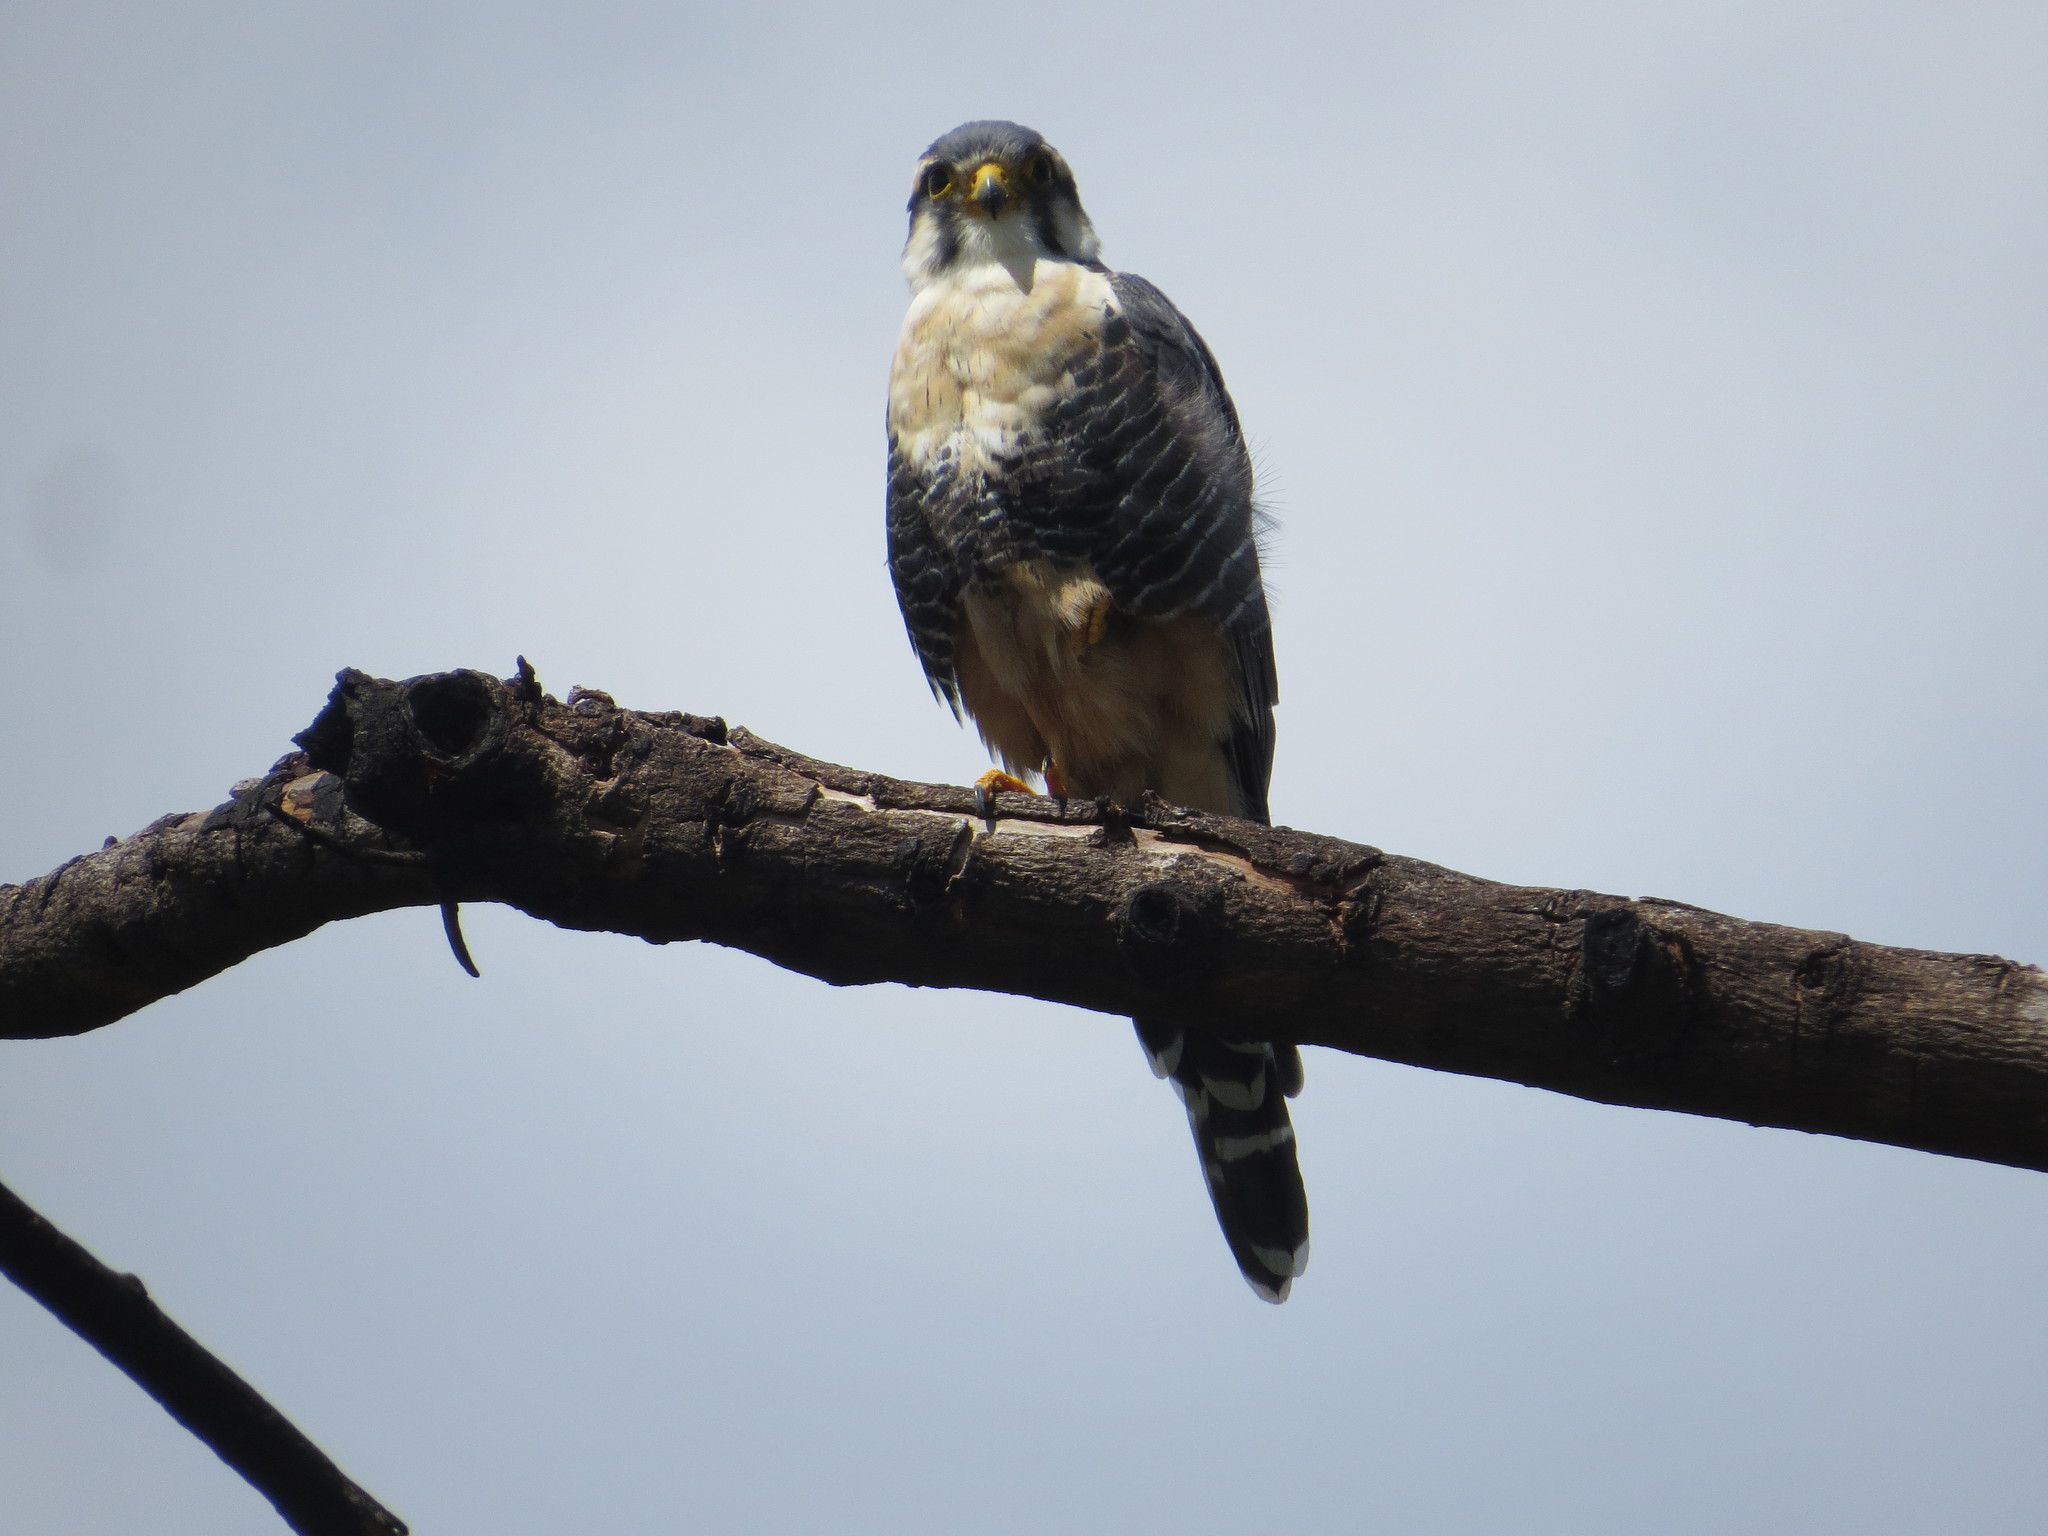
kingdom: Animalia
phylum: Chordata
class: Aves
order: Falconiformes
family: Falconidae
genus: Falco
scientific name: Falco femoralis
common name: Aplomado falcon
